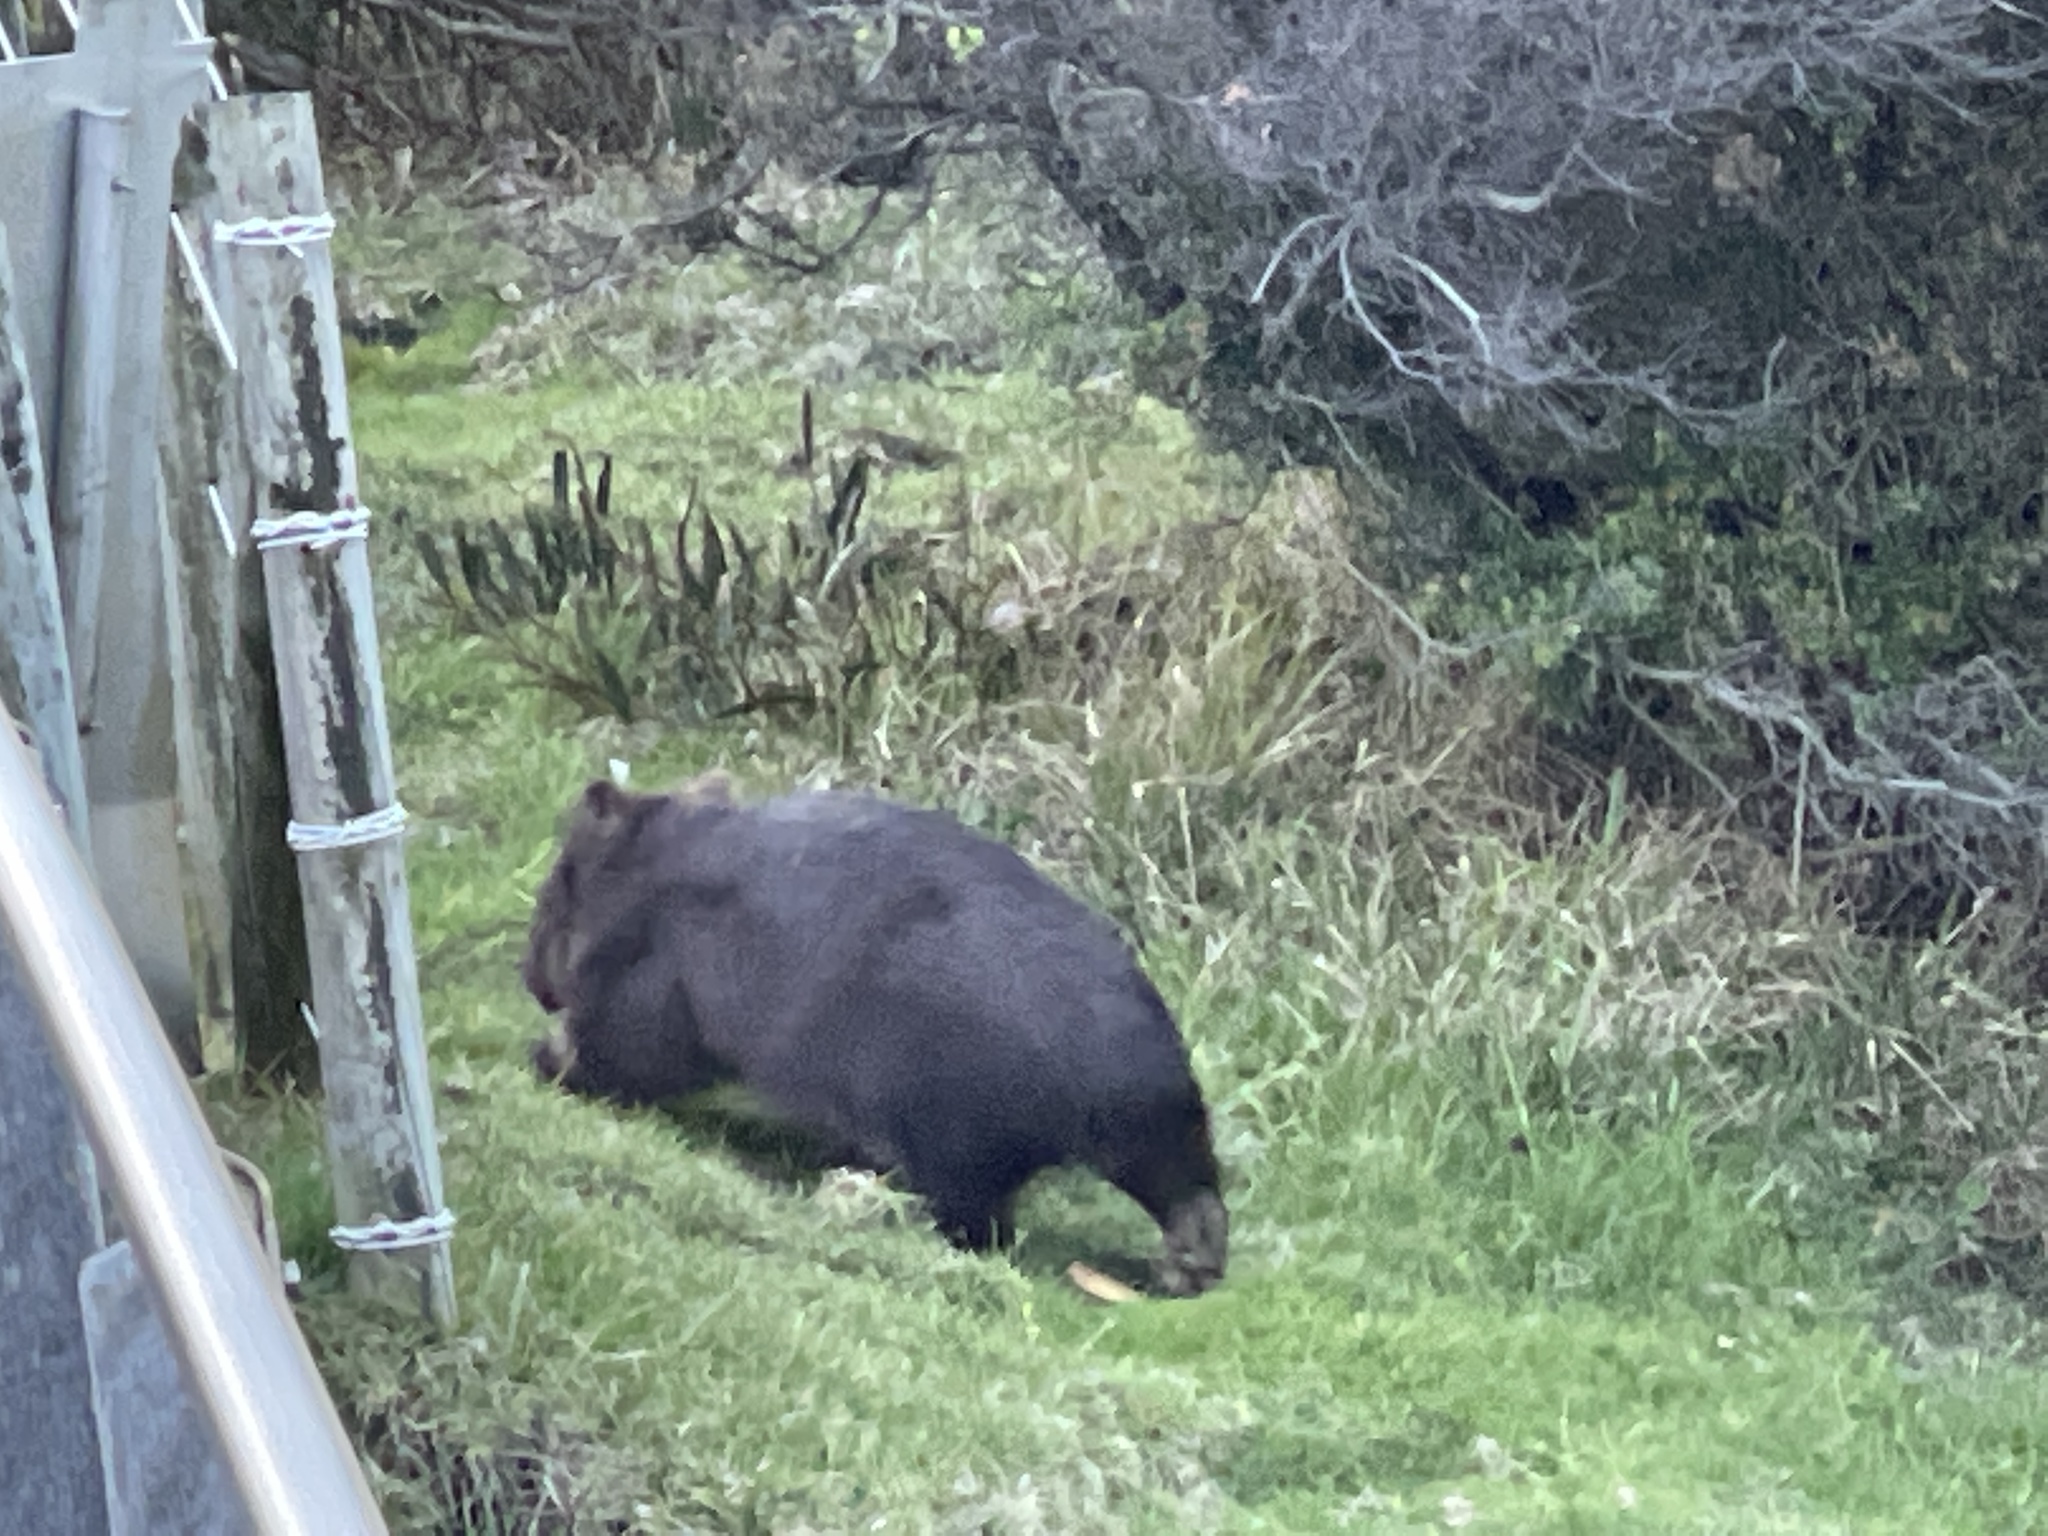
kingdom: Animalia
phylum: Chordata
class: Mammalia
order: Diprotodontia
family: Vombatidae
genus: Vombatus
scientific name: Vombatus ursinus
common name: Common wombat
